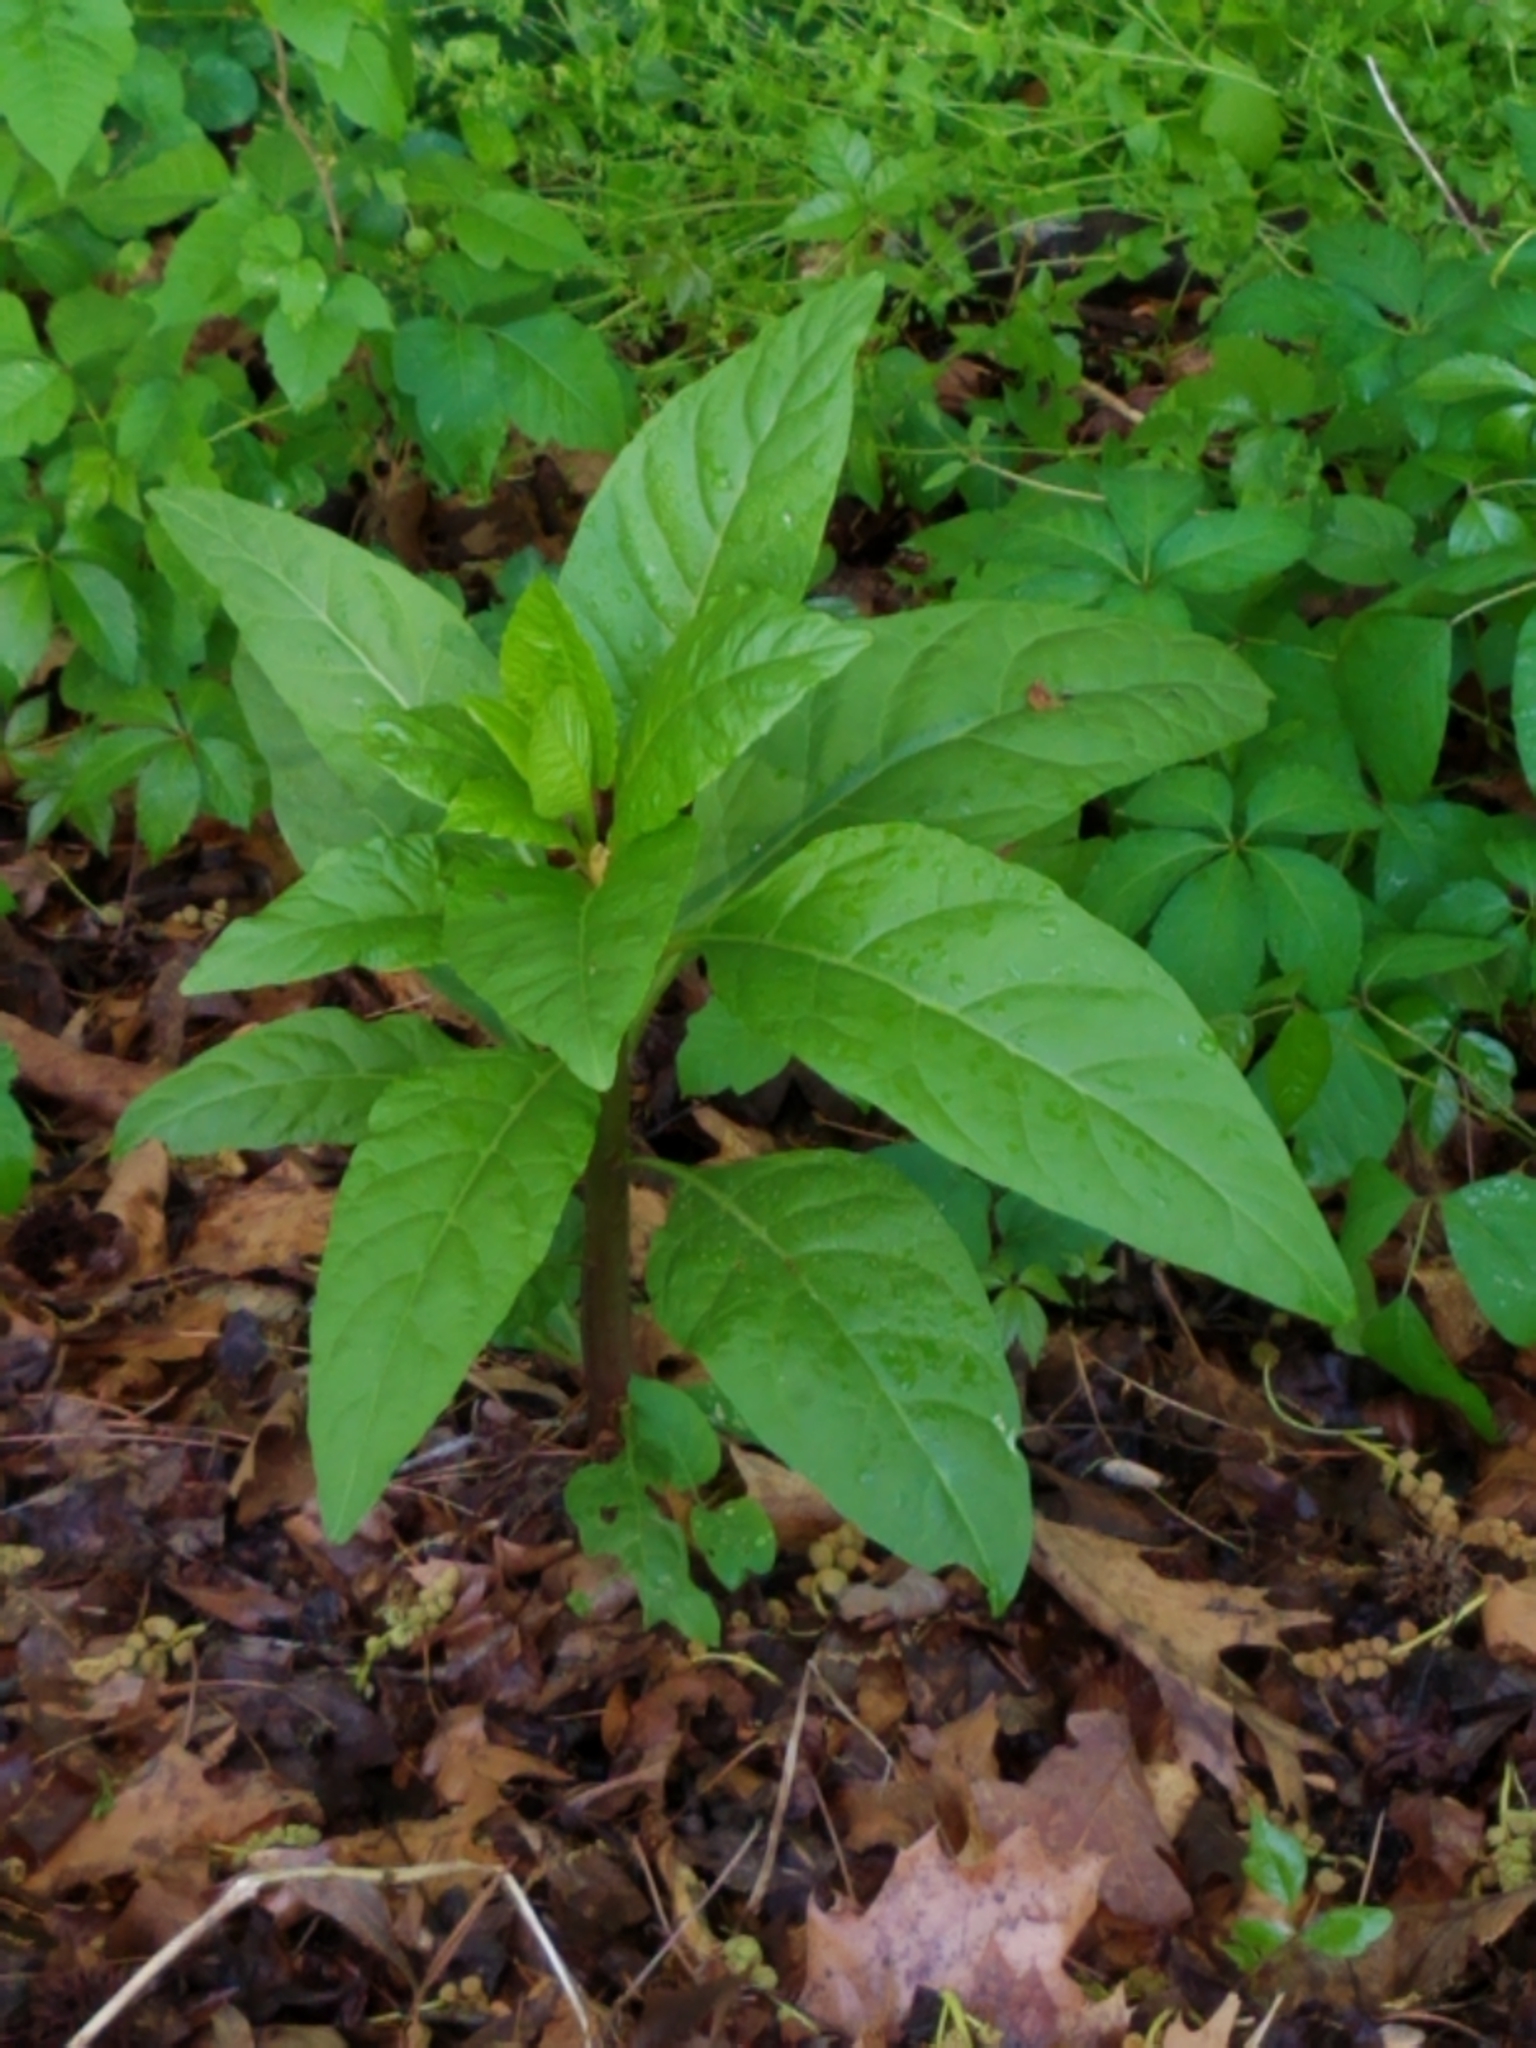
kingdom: Plantae
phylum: Tracheophyta
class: Magnoliopsida
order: Caryophyllales
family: Phytolaccaceae
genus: Phytolacca
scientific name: Phytolacca americana
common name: American pokeweed
